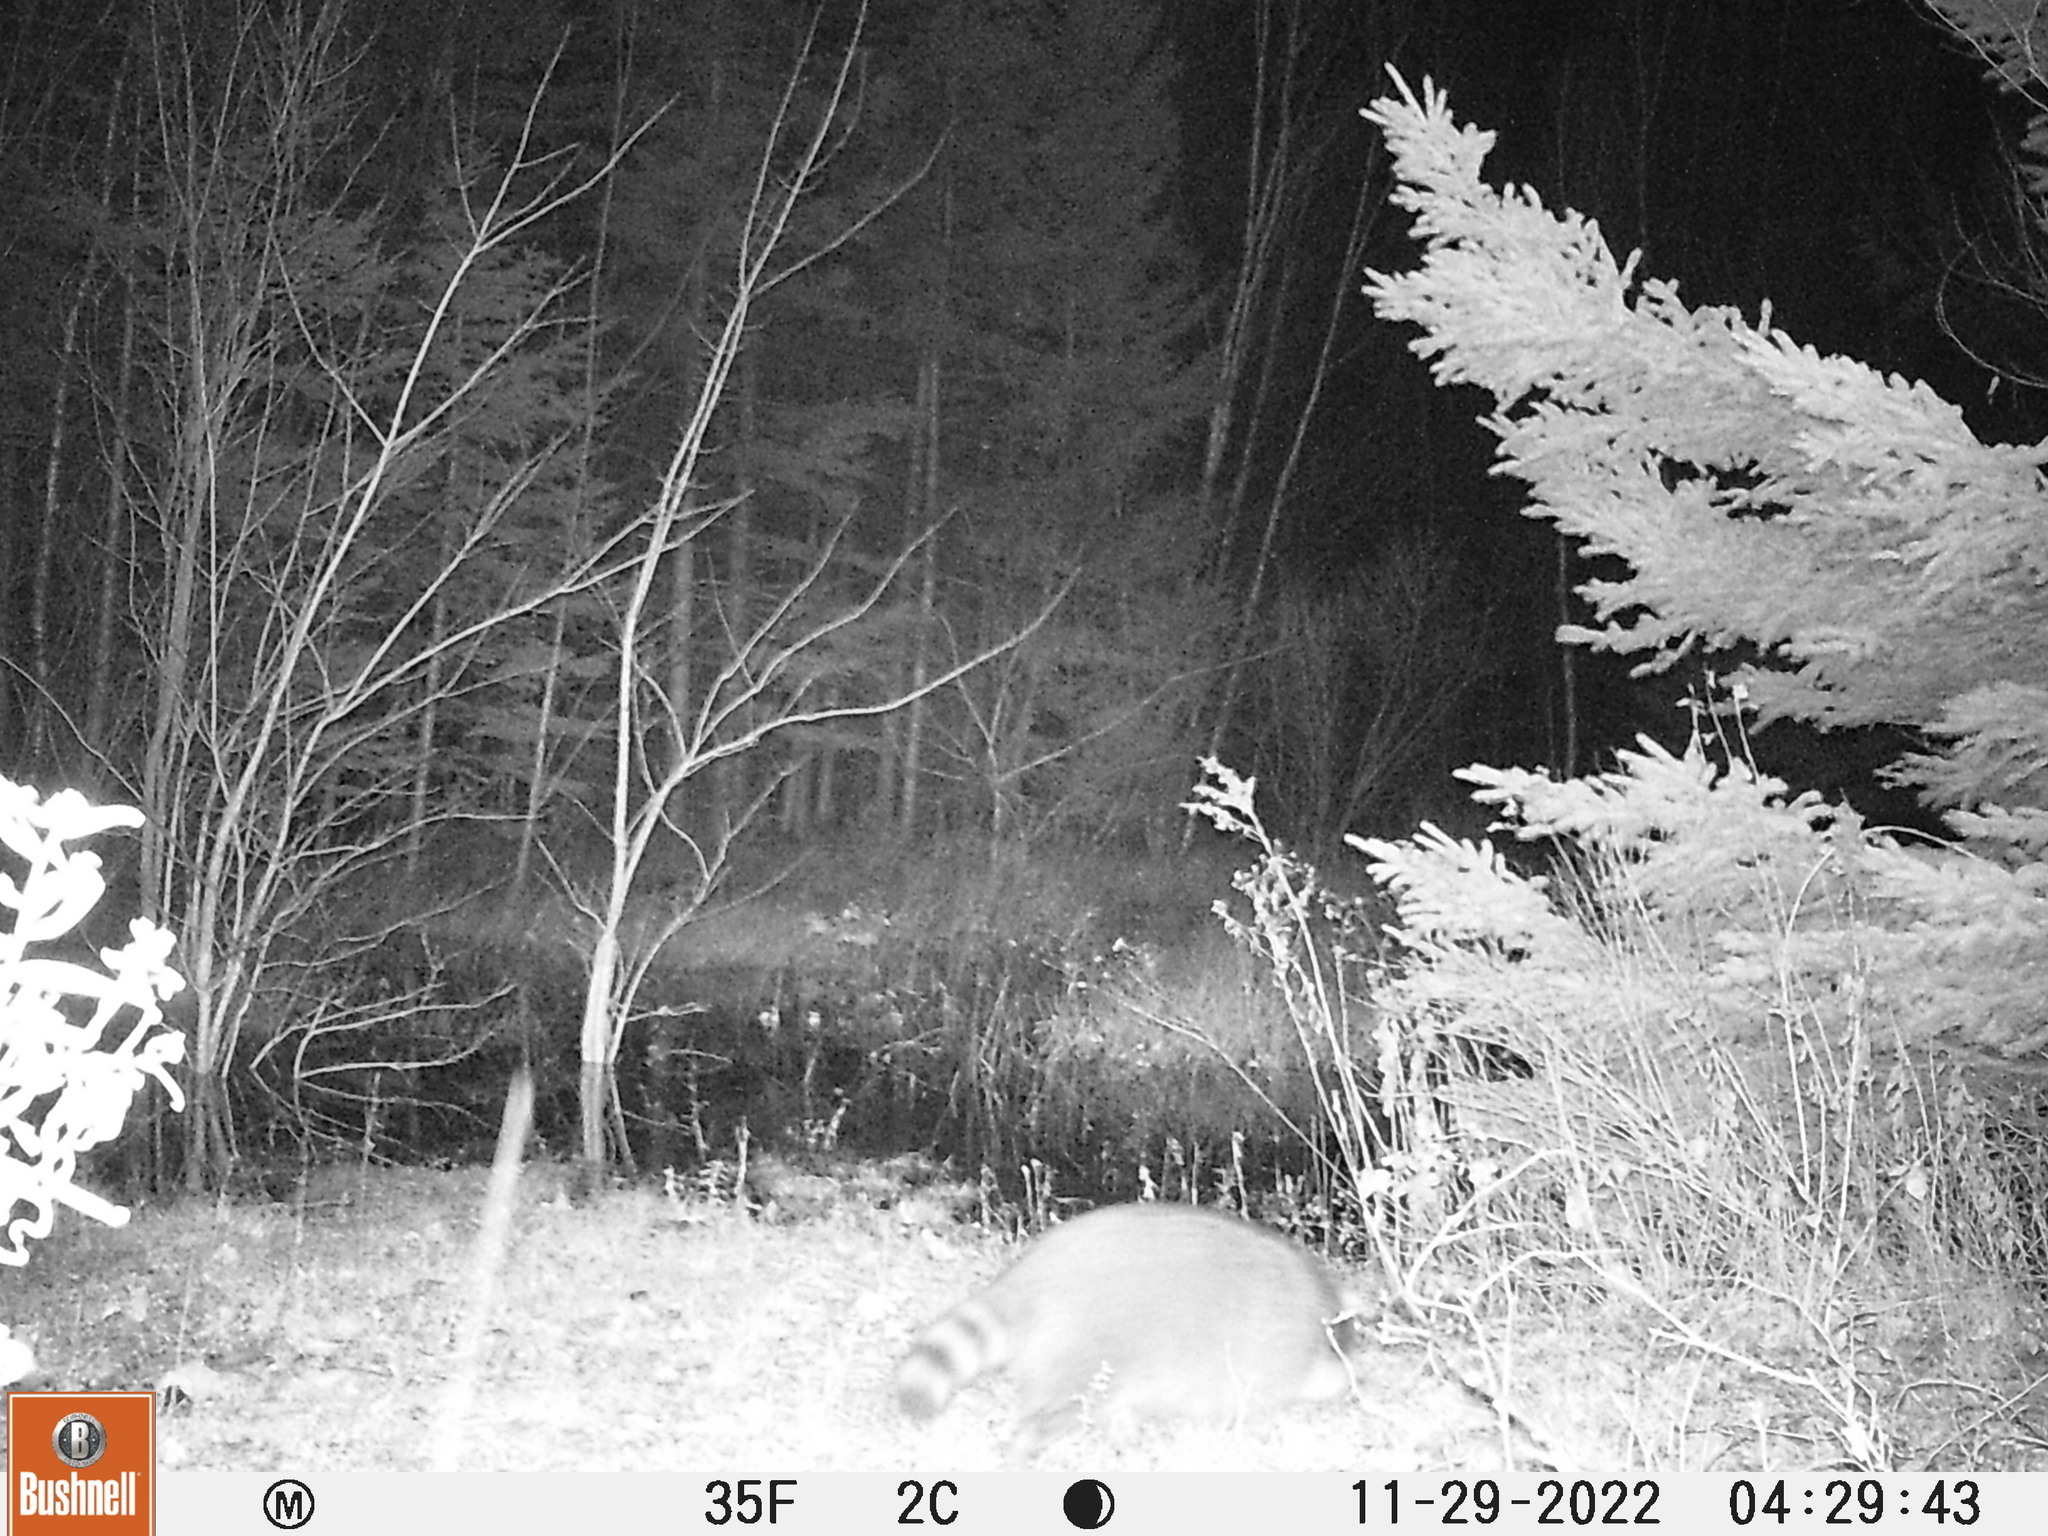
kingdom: Animalia
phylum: Chordata
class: Mammalia
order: Carnivora
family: Procyonidae
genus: Procyon
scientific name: Procyon lotor
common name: Raccoon
